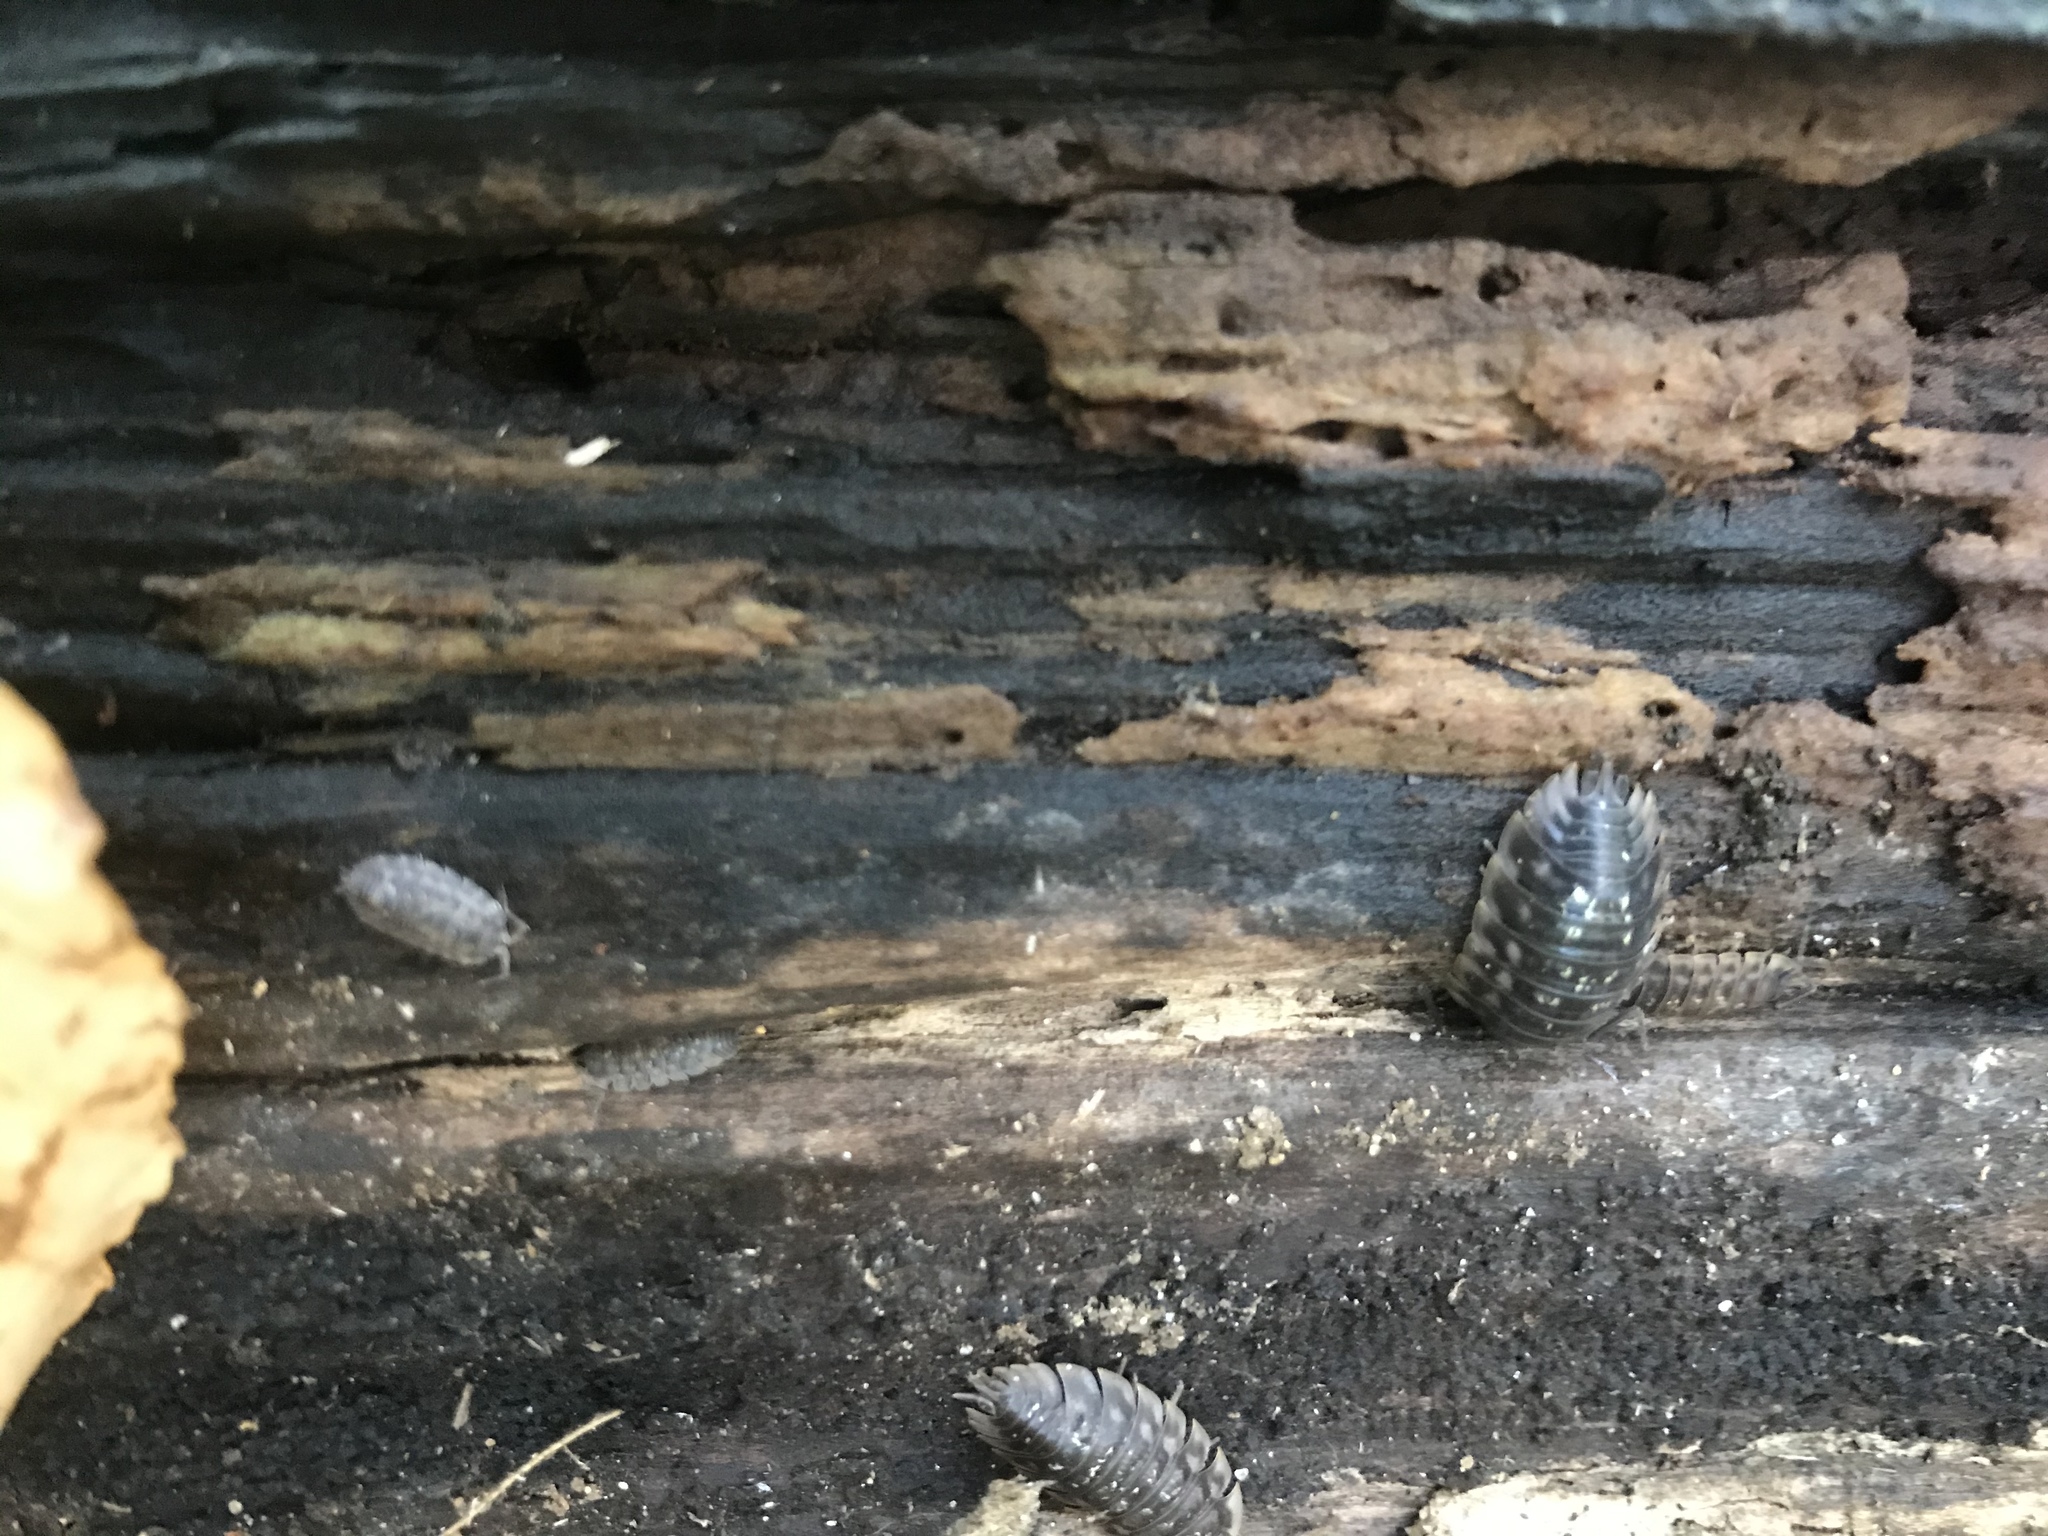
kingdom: Animalia
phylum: Arthropoda
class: Malacostraca
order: Isopoda
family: Oniscidae
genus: Oniscus
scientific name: Oniscus asellus
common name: Common shiny woodlouse
